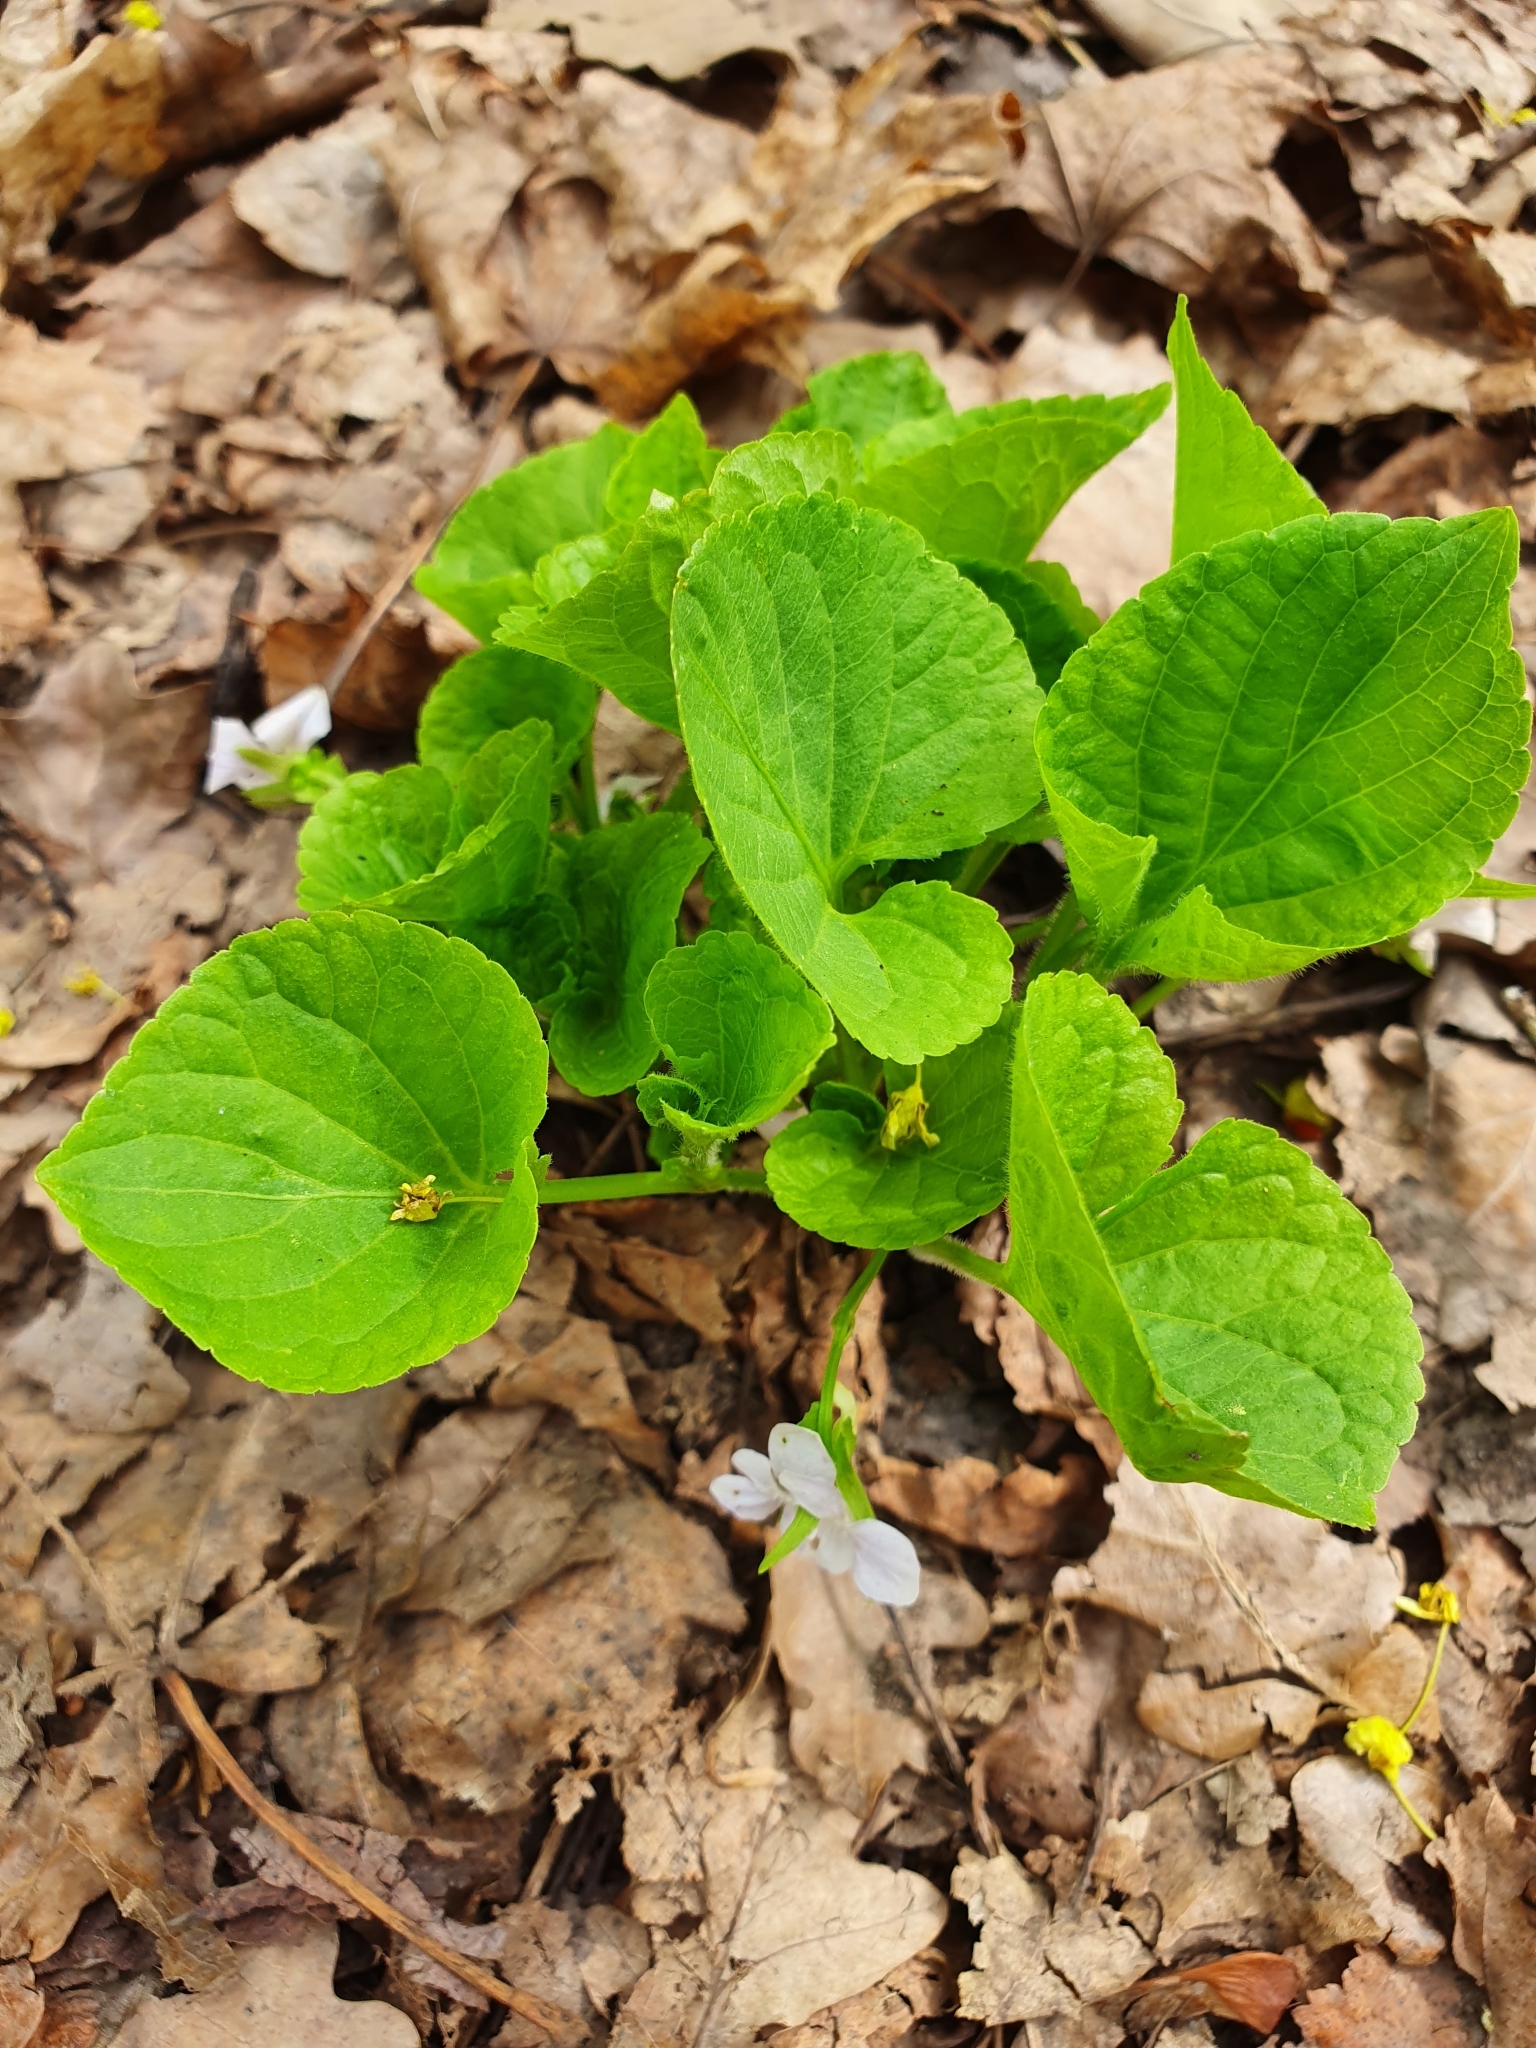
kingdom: Plantae
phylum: Tracheophyta
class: Magnoliopsida
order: Malpighiales
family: Violaceae
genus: Viola
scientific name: Viola mirabilis
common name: Wonder violet
